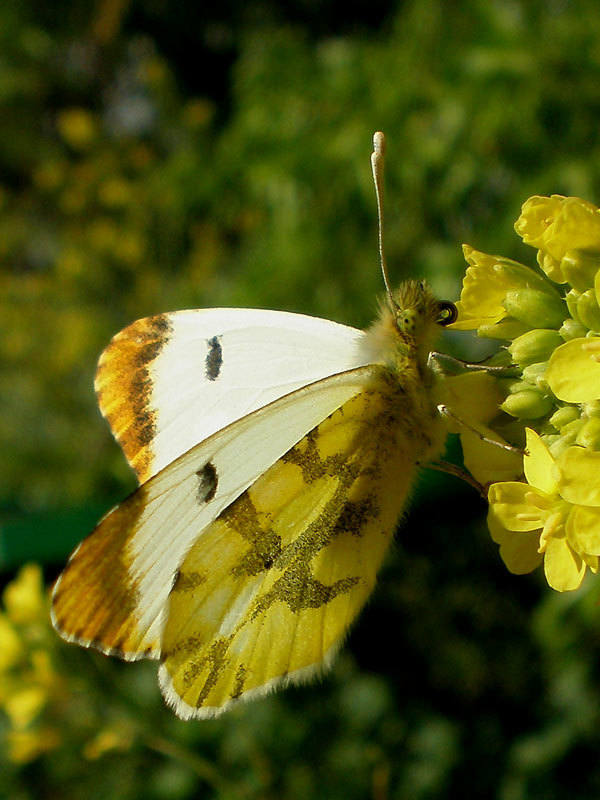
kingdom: Animalia
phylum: Arthropoda
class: Insecta
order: Lepidoptera
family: Pieridae
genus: Anthocharis
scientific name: Anthocharis euphenoides
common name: Provence orange-tip
